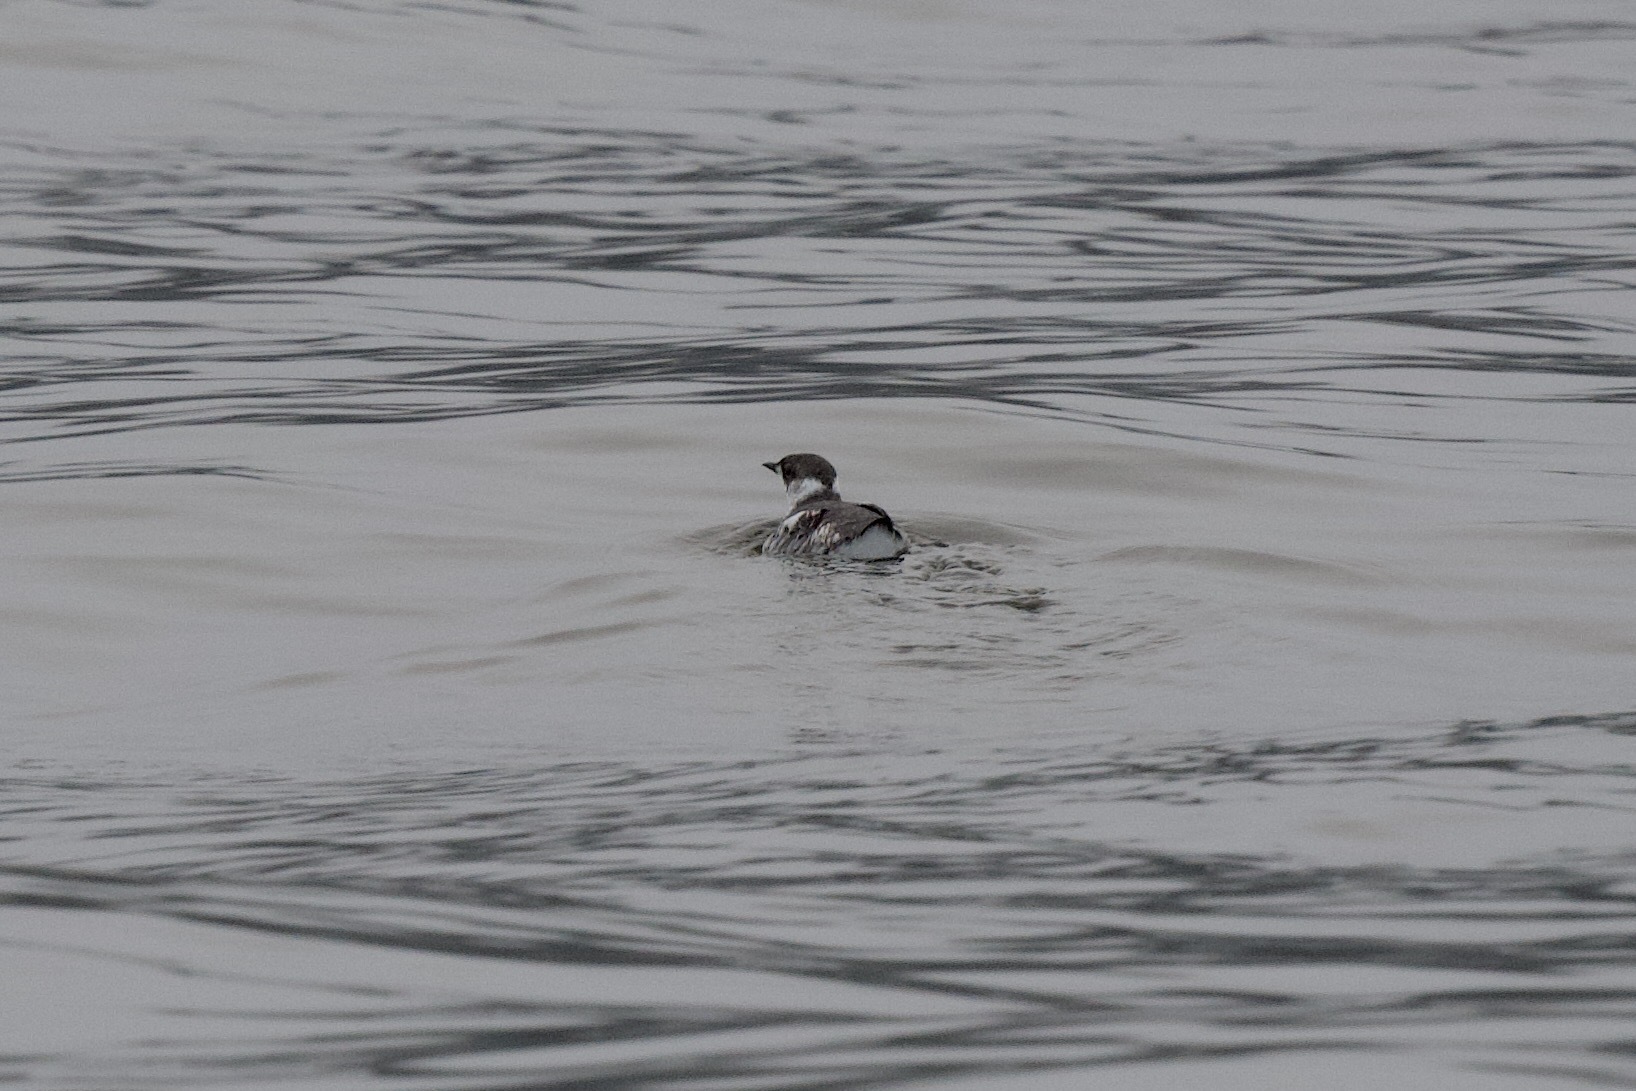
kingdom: Animalia
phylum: Chordata
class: Aves
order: Charadriiformes
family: Alcidae
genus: Brachyramphus
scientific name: Brachyramphus marmoratus
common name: Marbled murrelet
